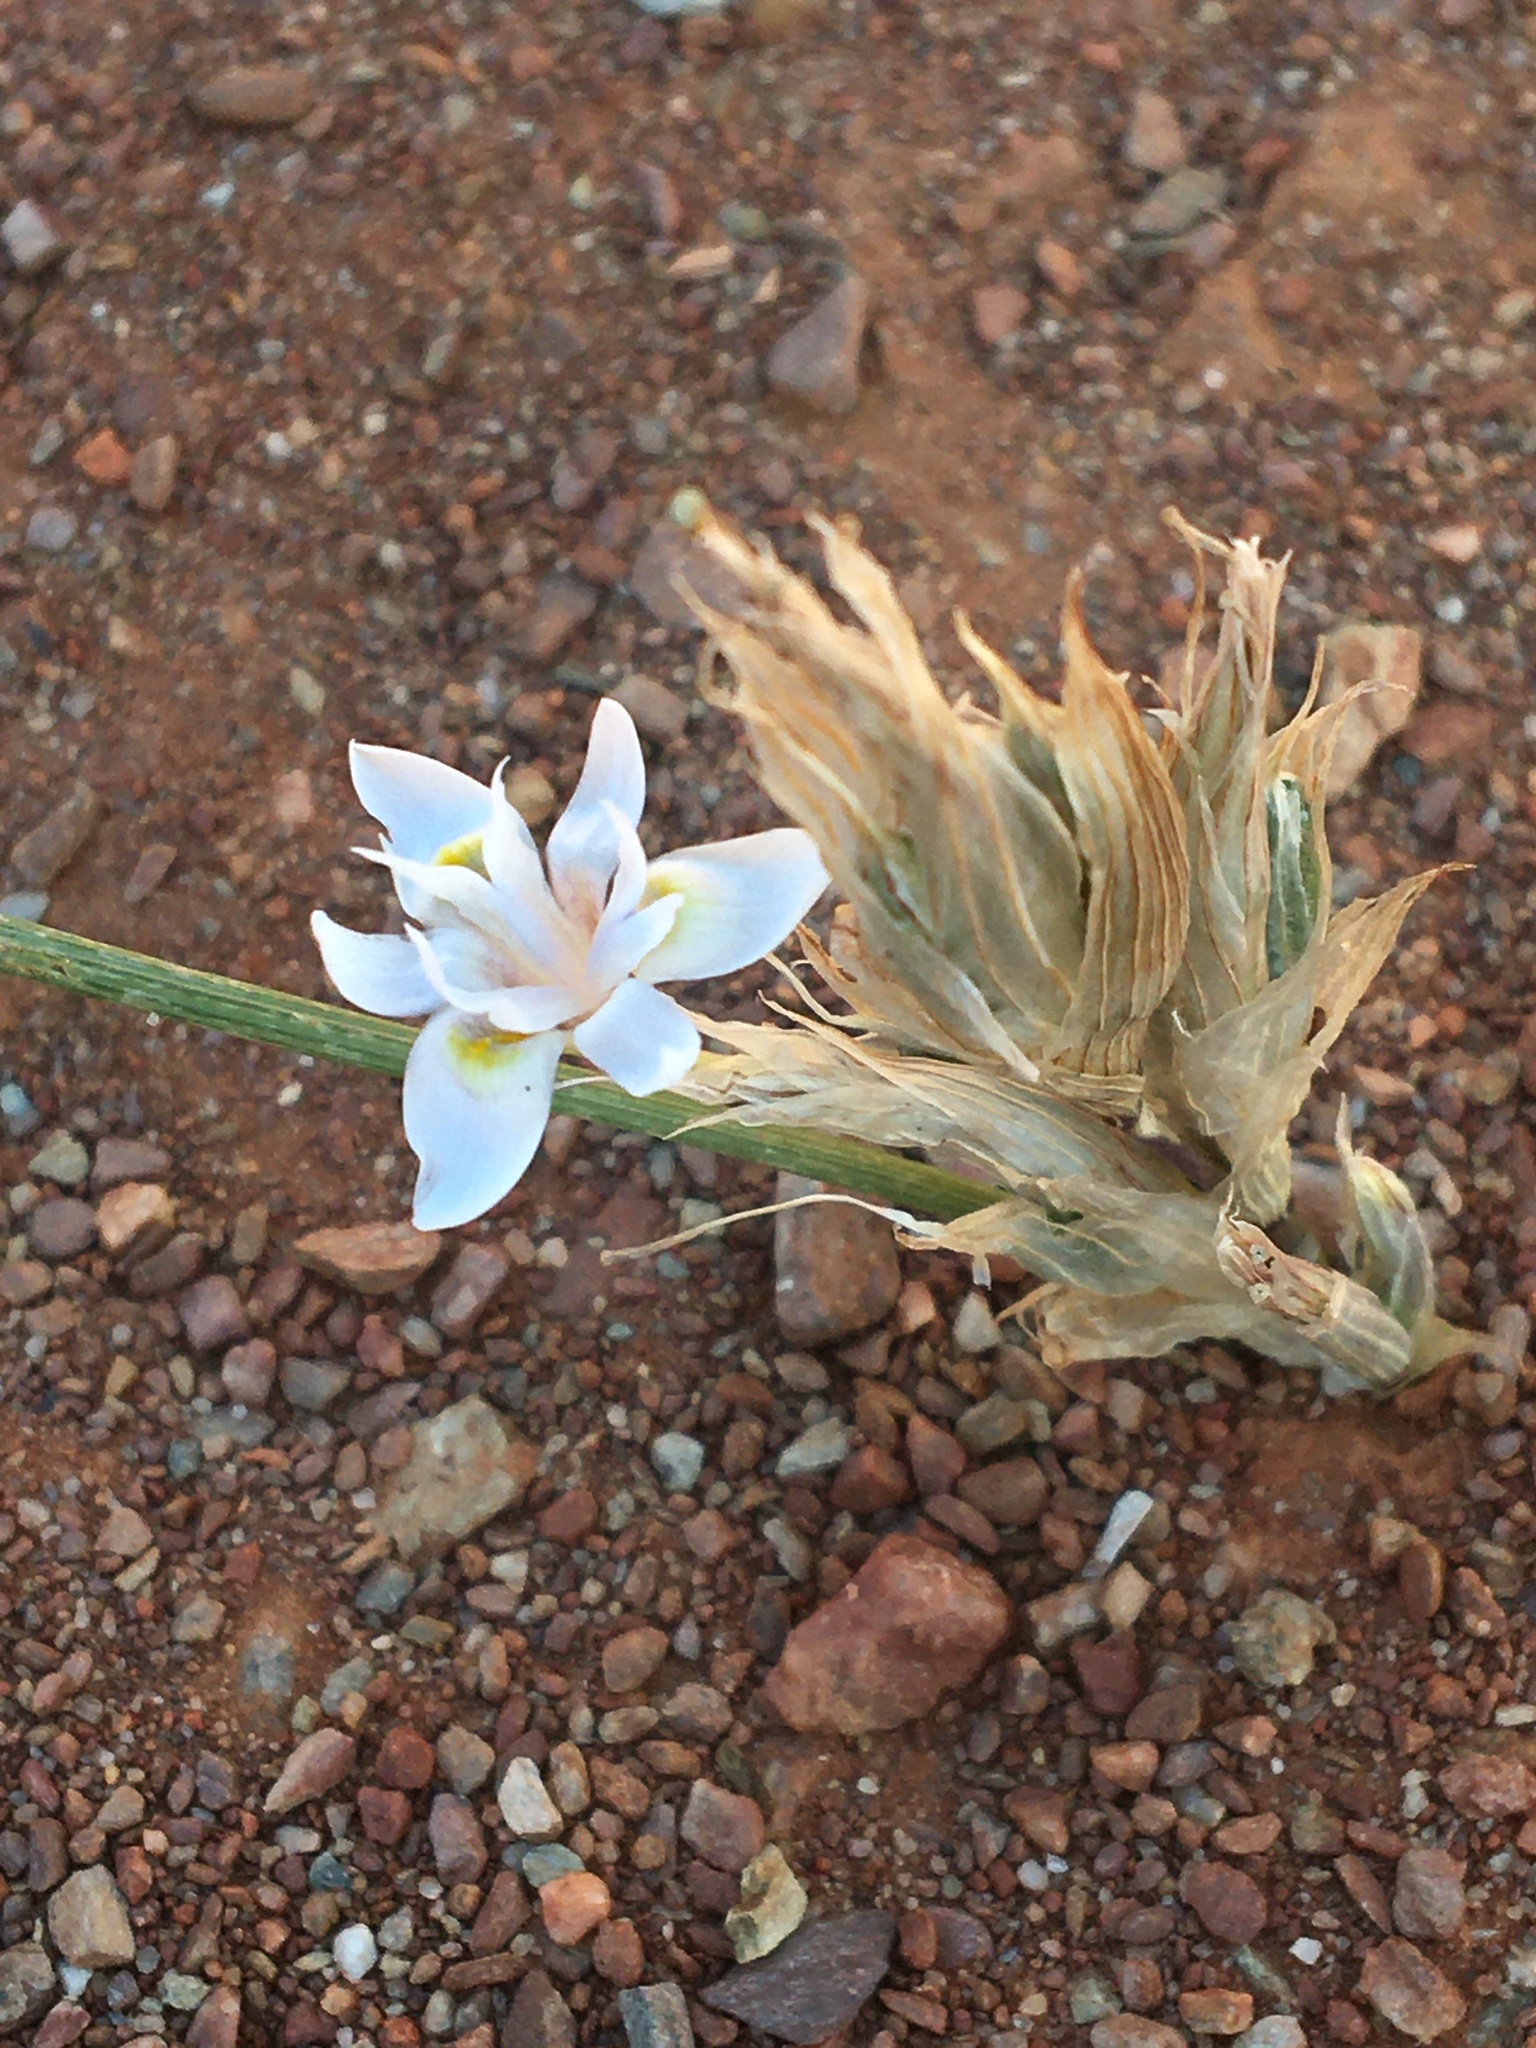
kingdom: Plantae
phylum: Tracheophyta
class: Liliopsida
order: Asparagales
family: Iridaceae
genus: Moraea
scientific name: Moraea setifolia
